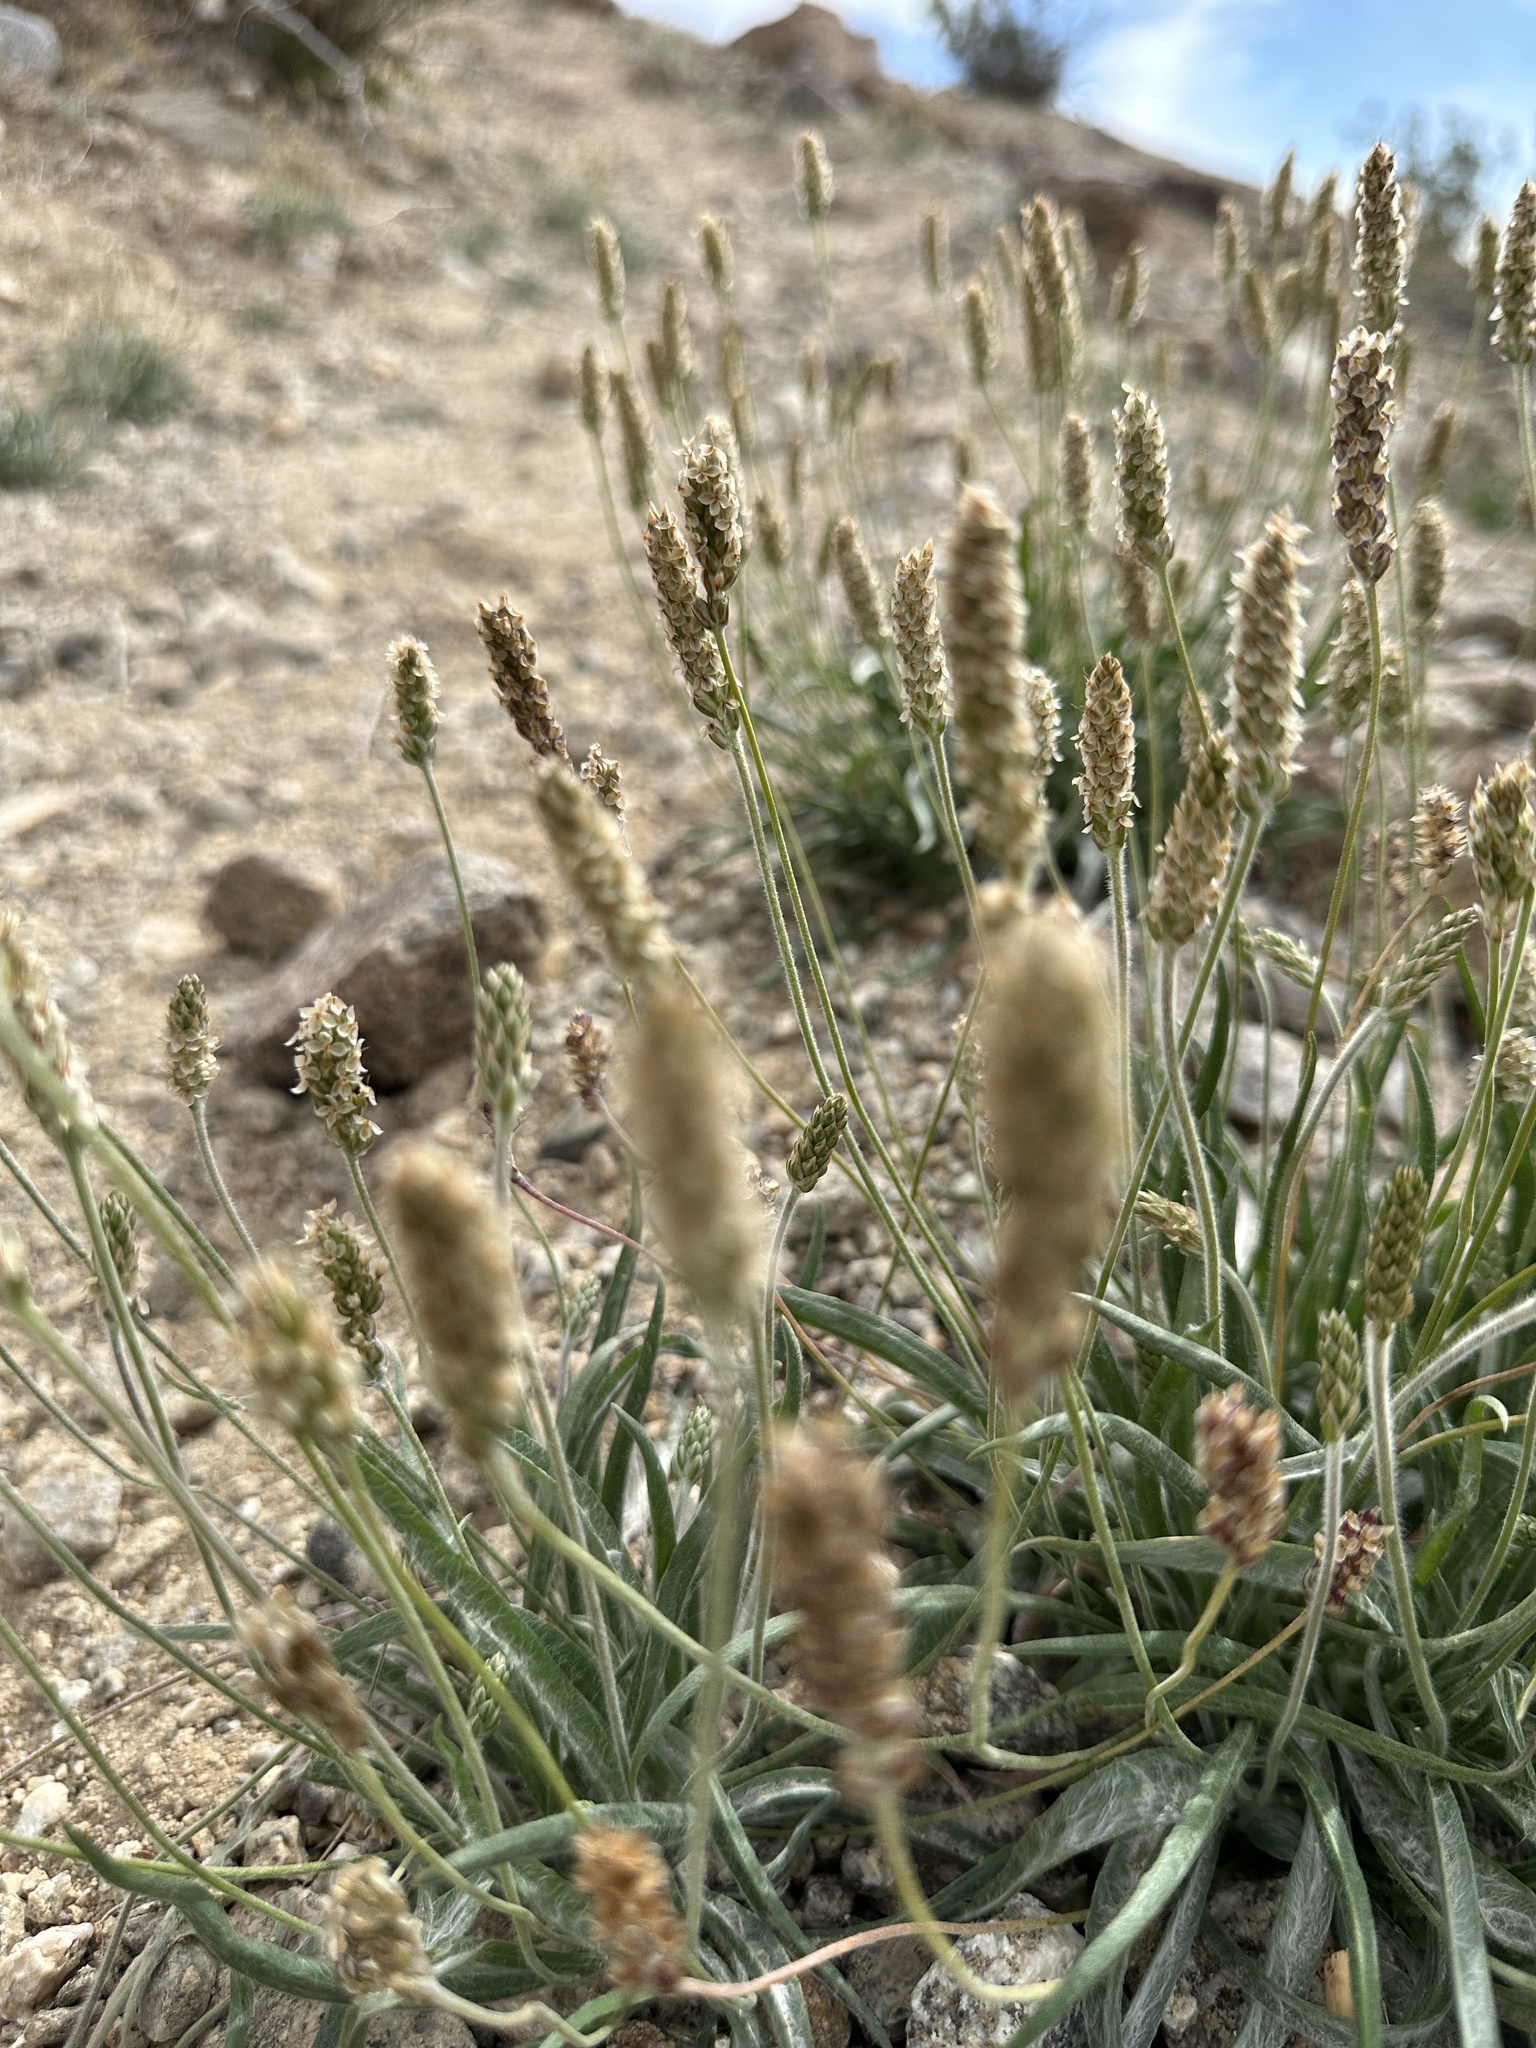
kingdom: Plantae
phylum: Tracheophyta
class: Magnoliopsida
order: Lamiales
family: Plantaginaceae
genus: Plantago
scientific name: Plantago ovata
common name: Blond plantain
